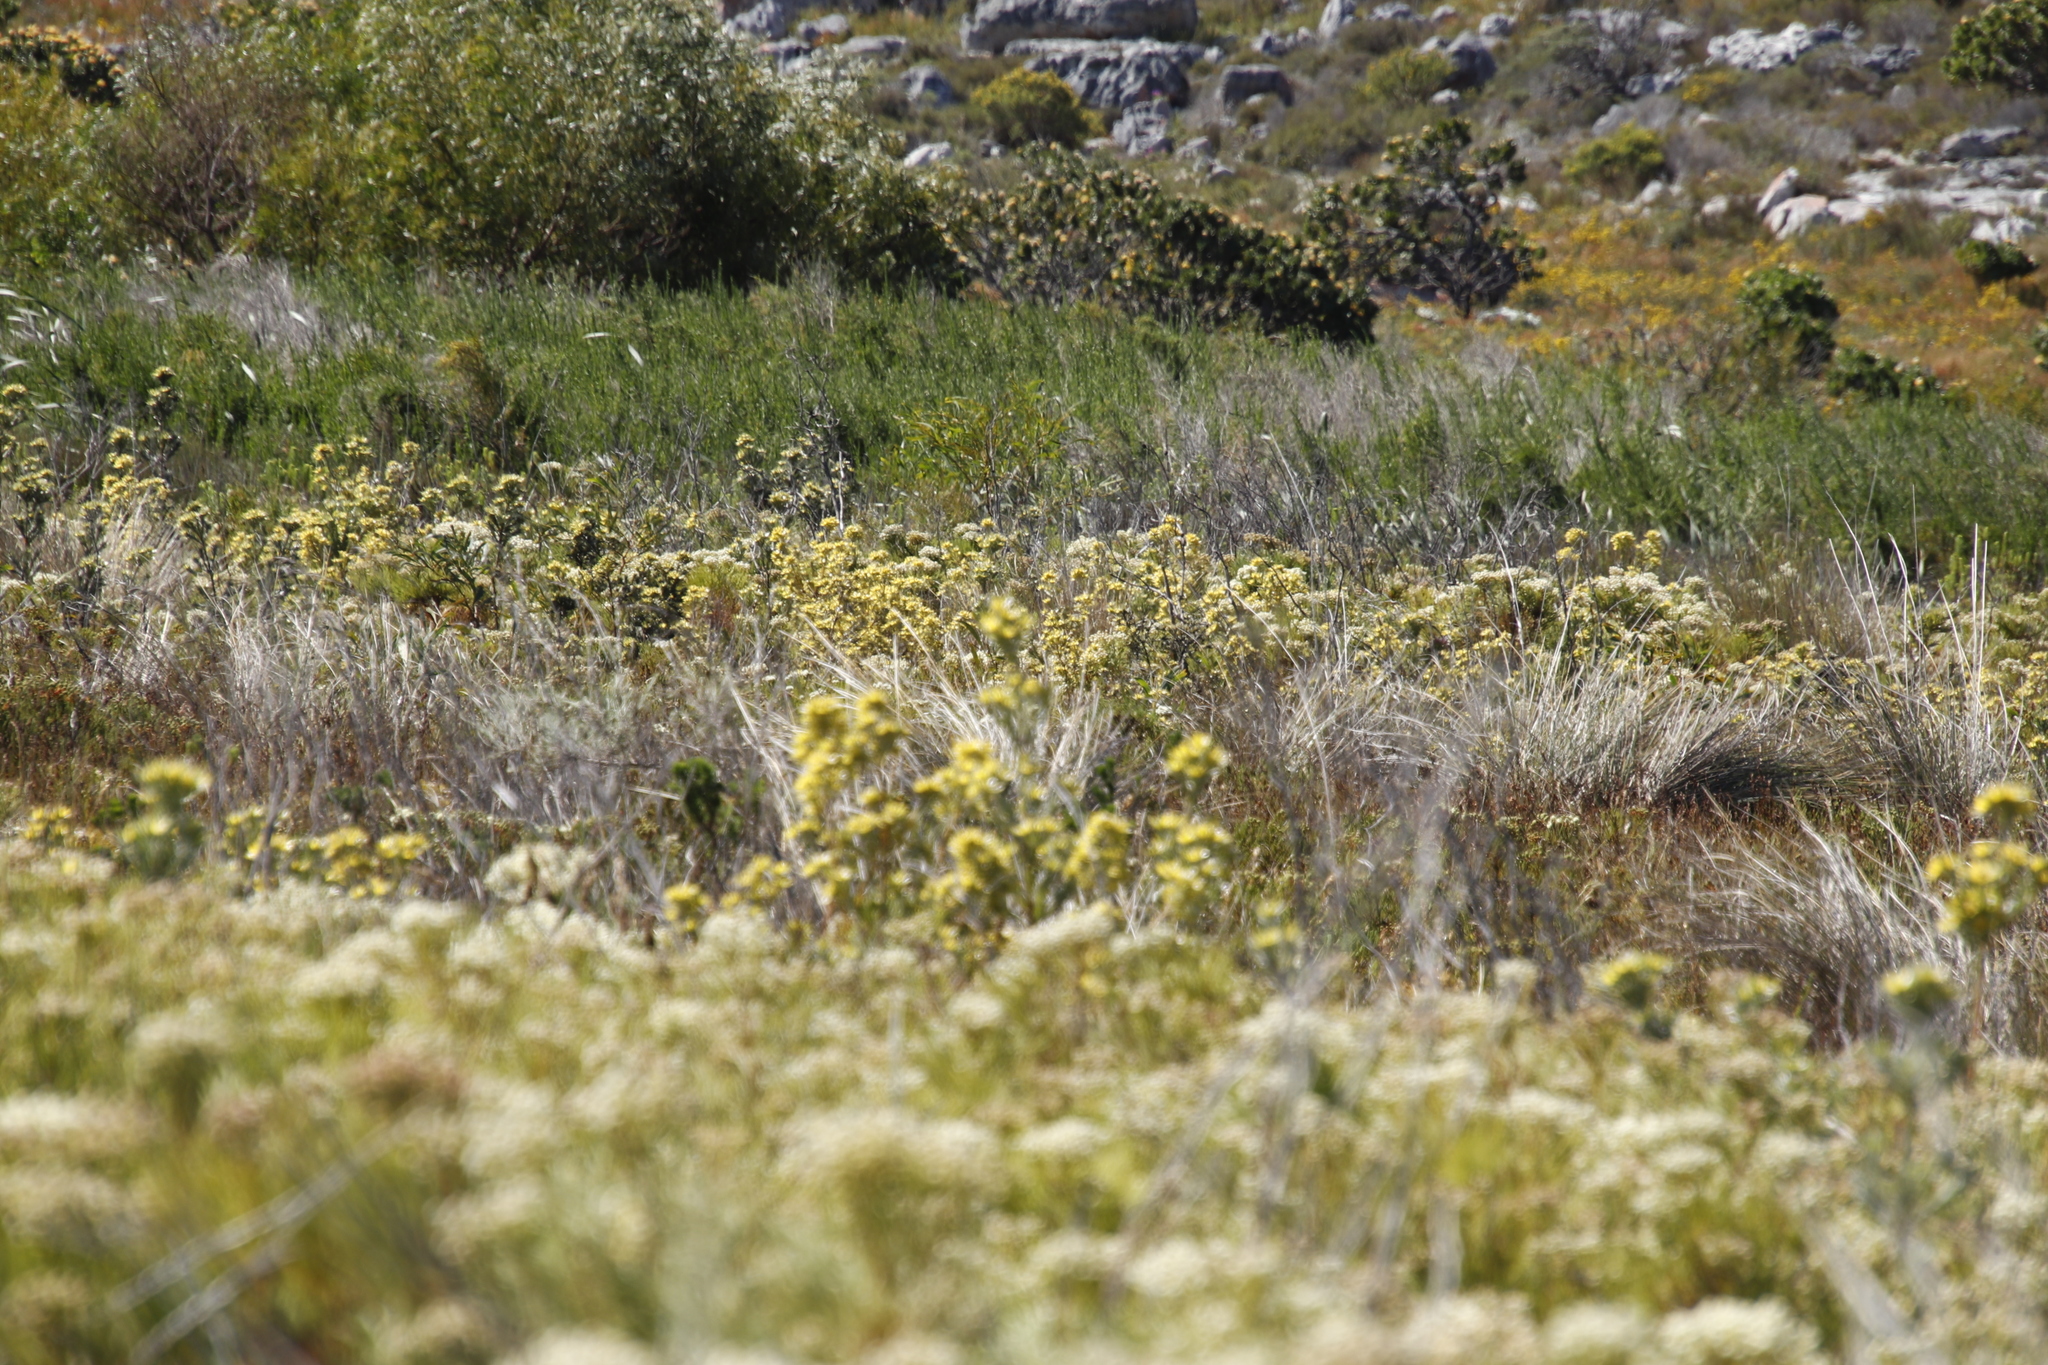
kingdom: Plantae
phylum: Tracheophyta
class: Magnoliopsida
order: Proteales
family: Proteaceae
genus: Leucadendron
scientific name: Leucadendron floridum
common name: Flats conebush
